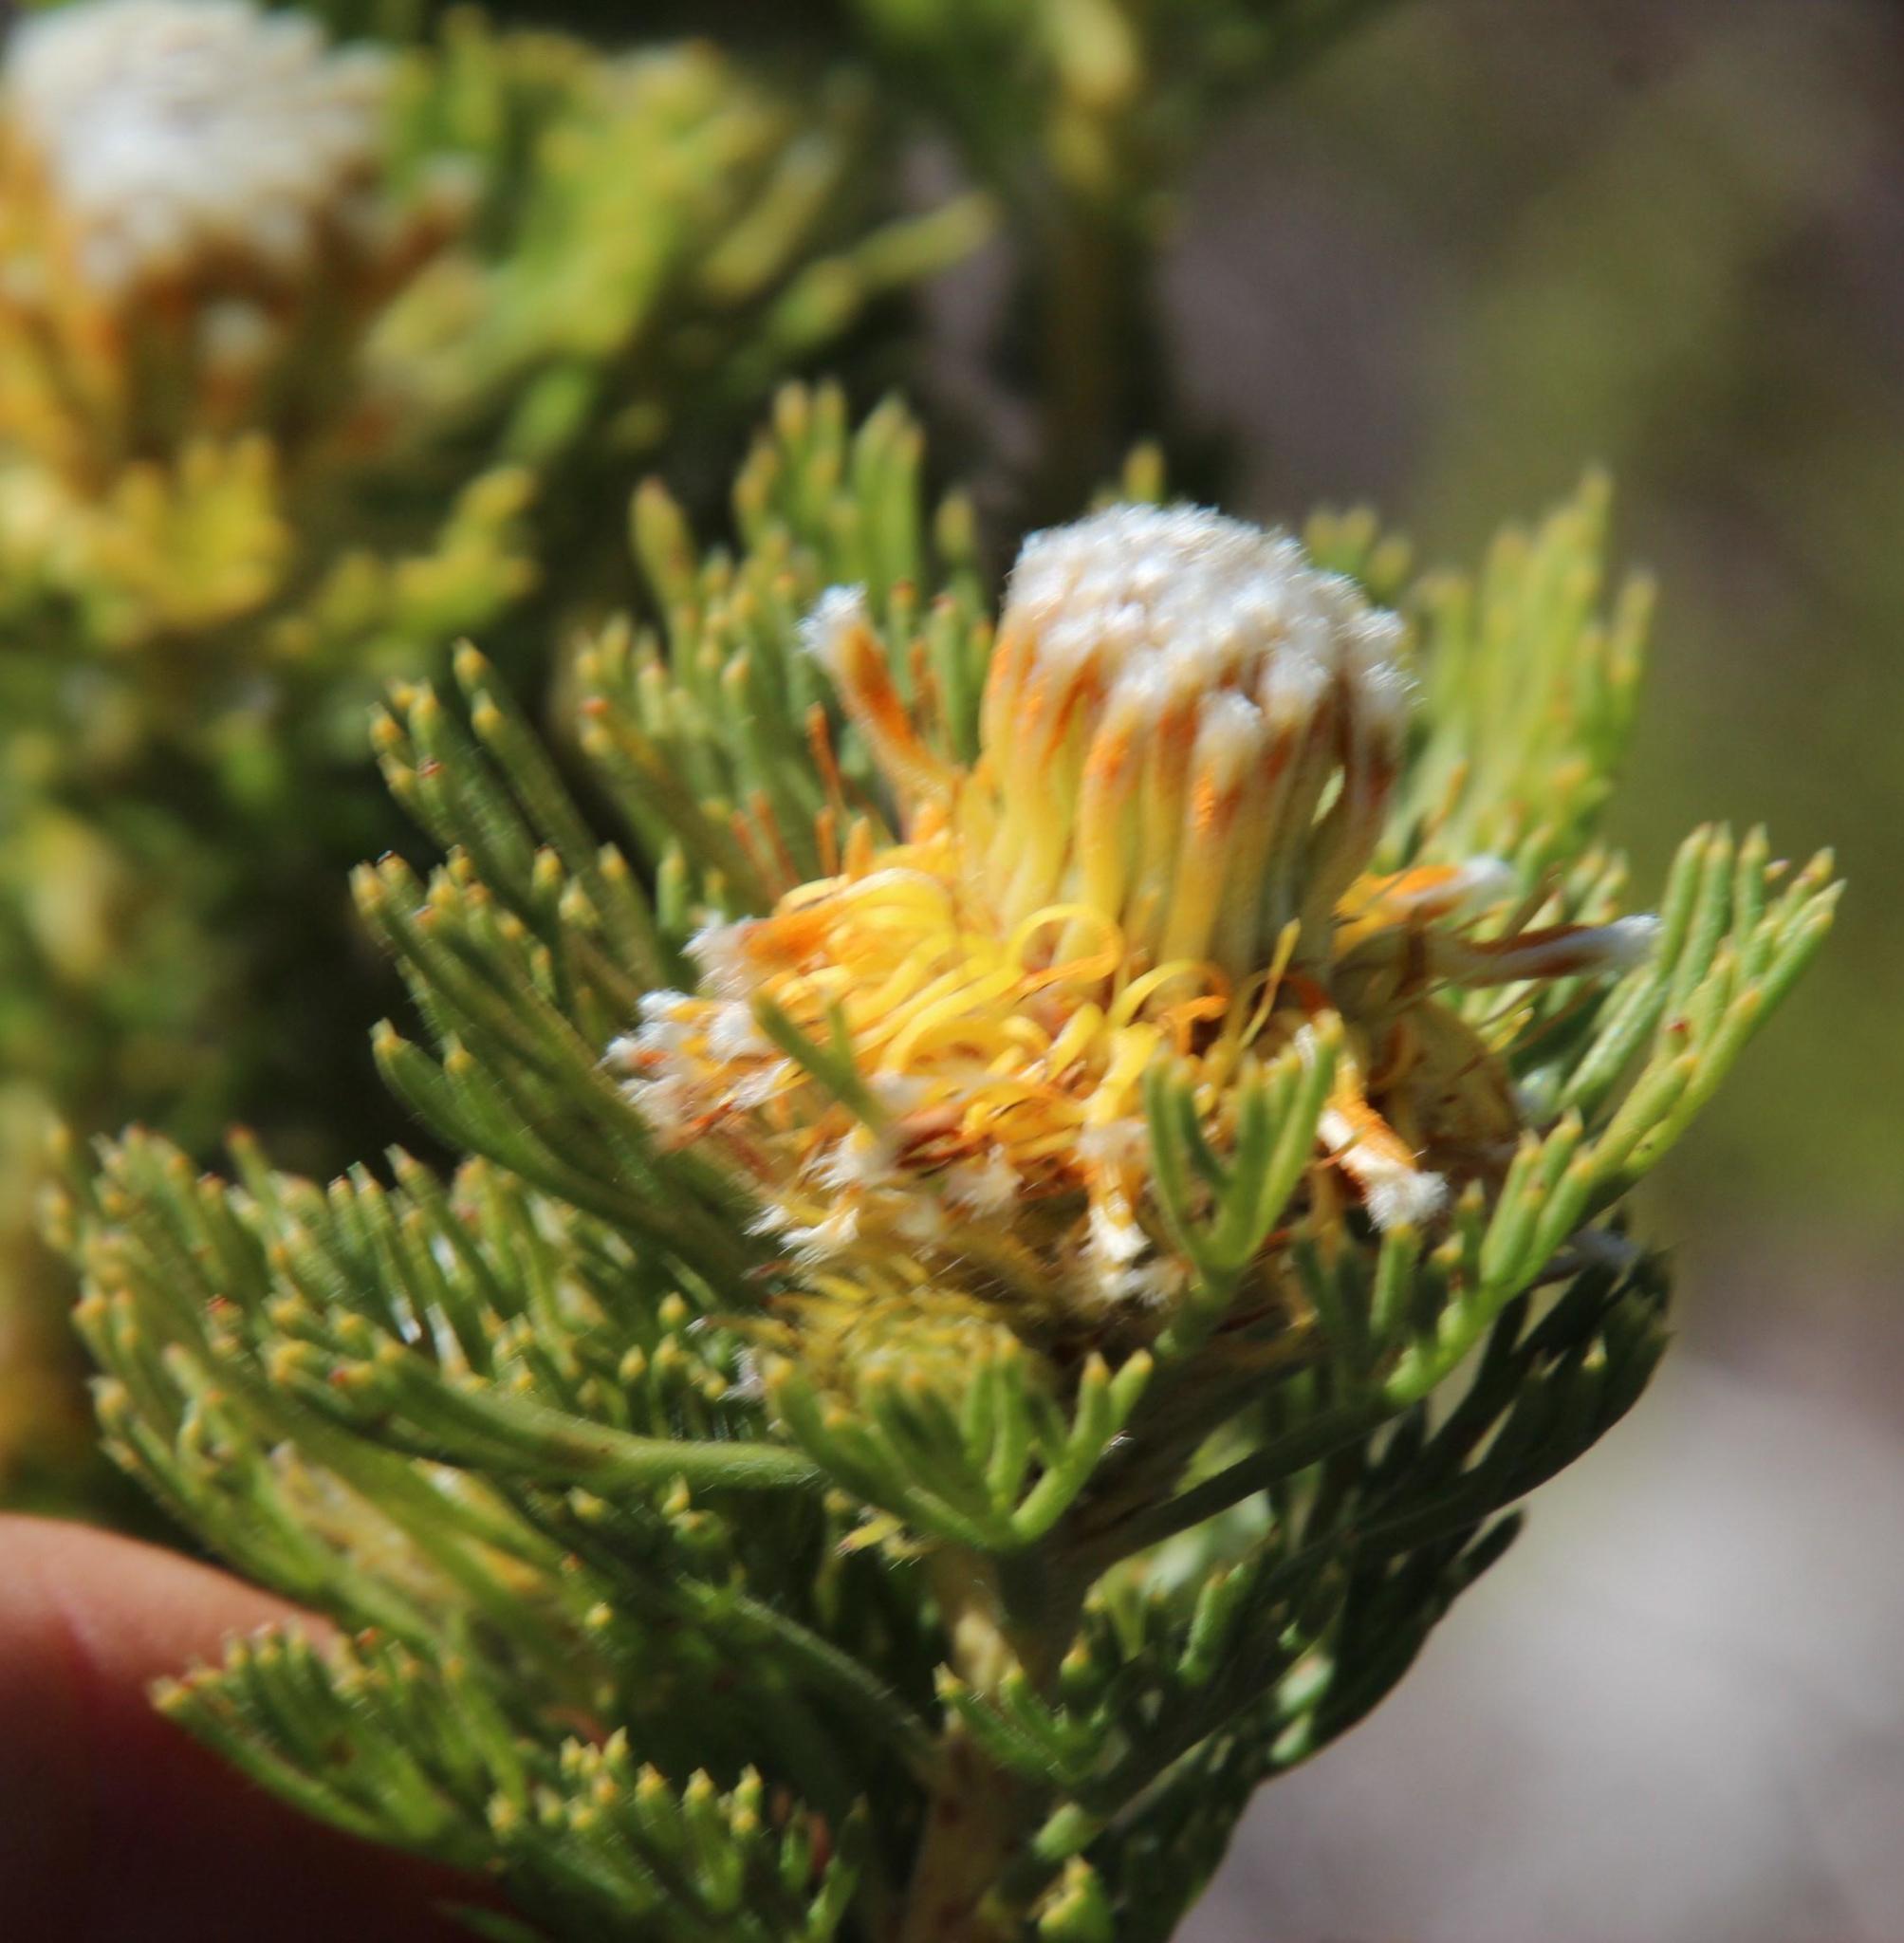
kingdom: Plantae
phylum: Tracheophyta
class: Magnoliopsida
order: Proteales
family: Proteaceae
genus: Serruria
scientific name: Serruria villosa
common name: Golden spiderhead
